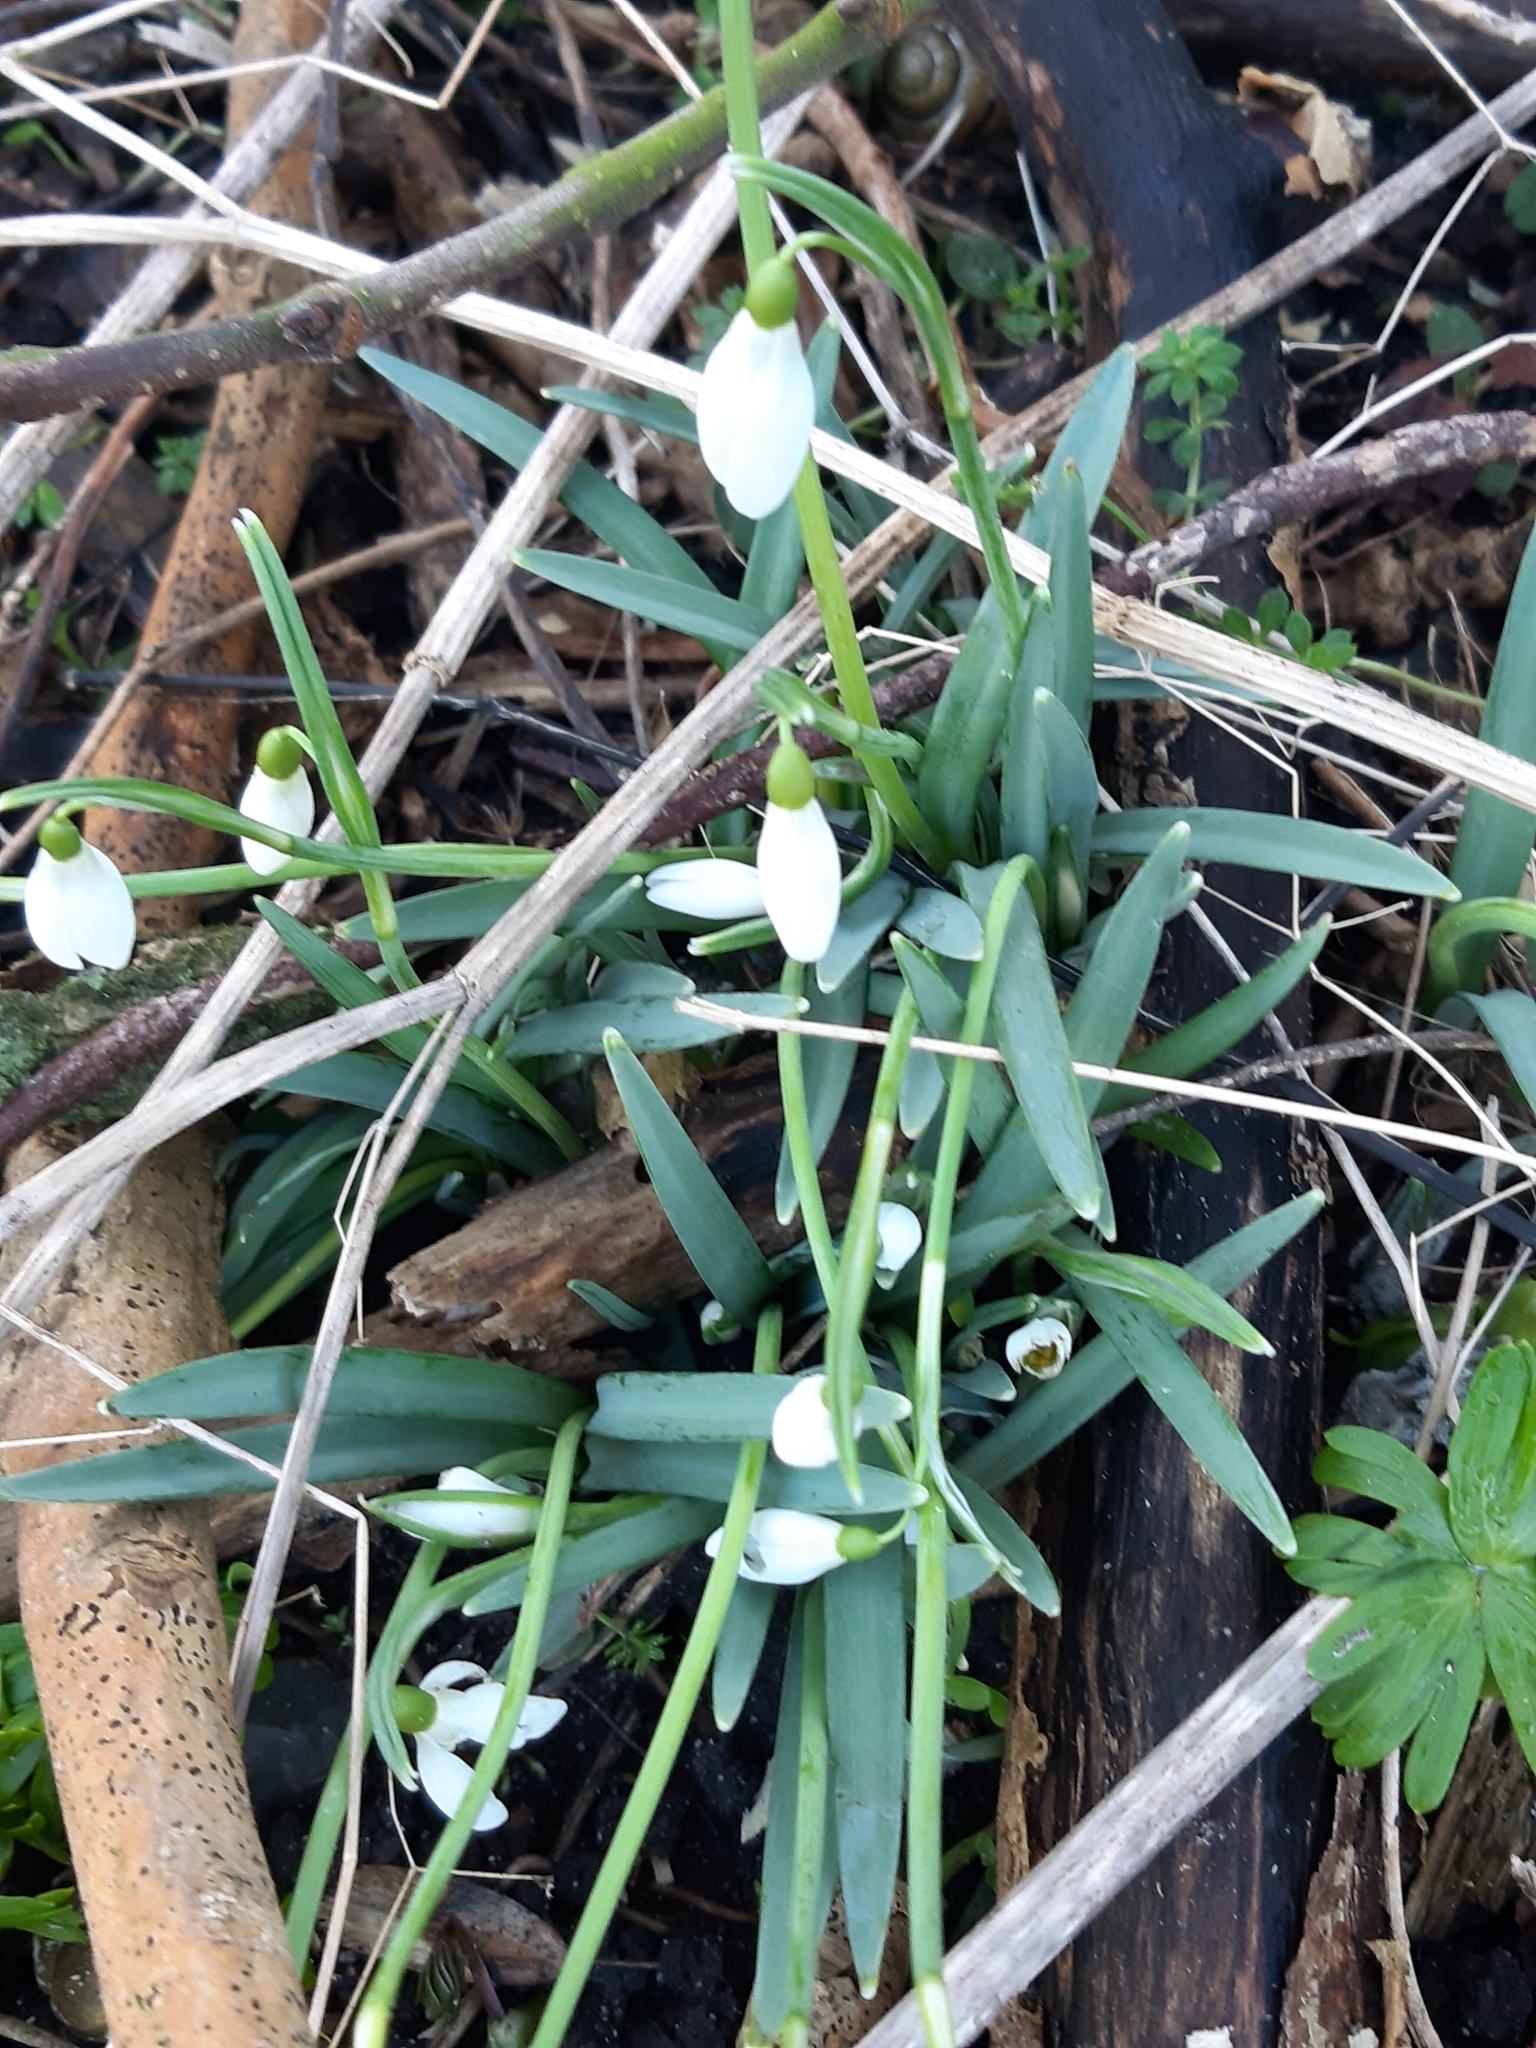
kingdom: Plantae
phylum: Tracheophyta
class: Liliopsida
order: Asparagales
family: Amaryllidaceae
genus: Galanthus
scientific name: Galanthus nivalis
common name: Snowdrop
